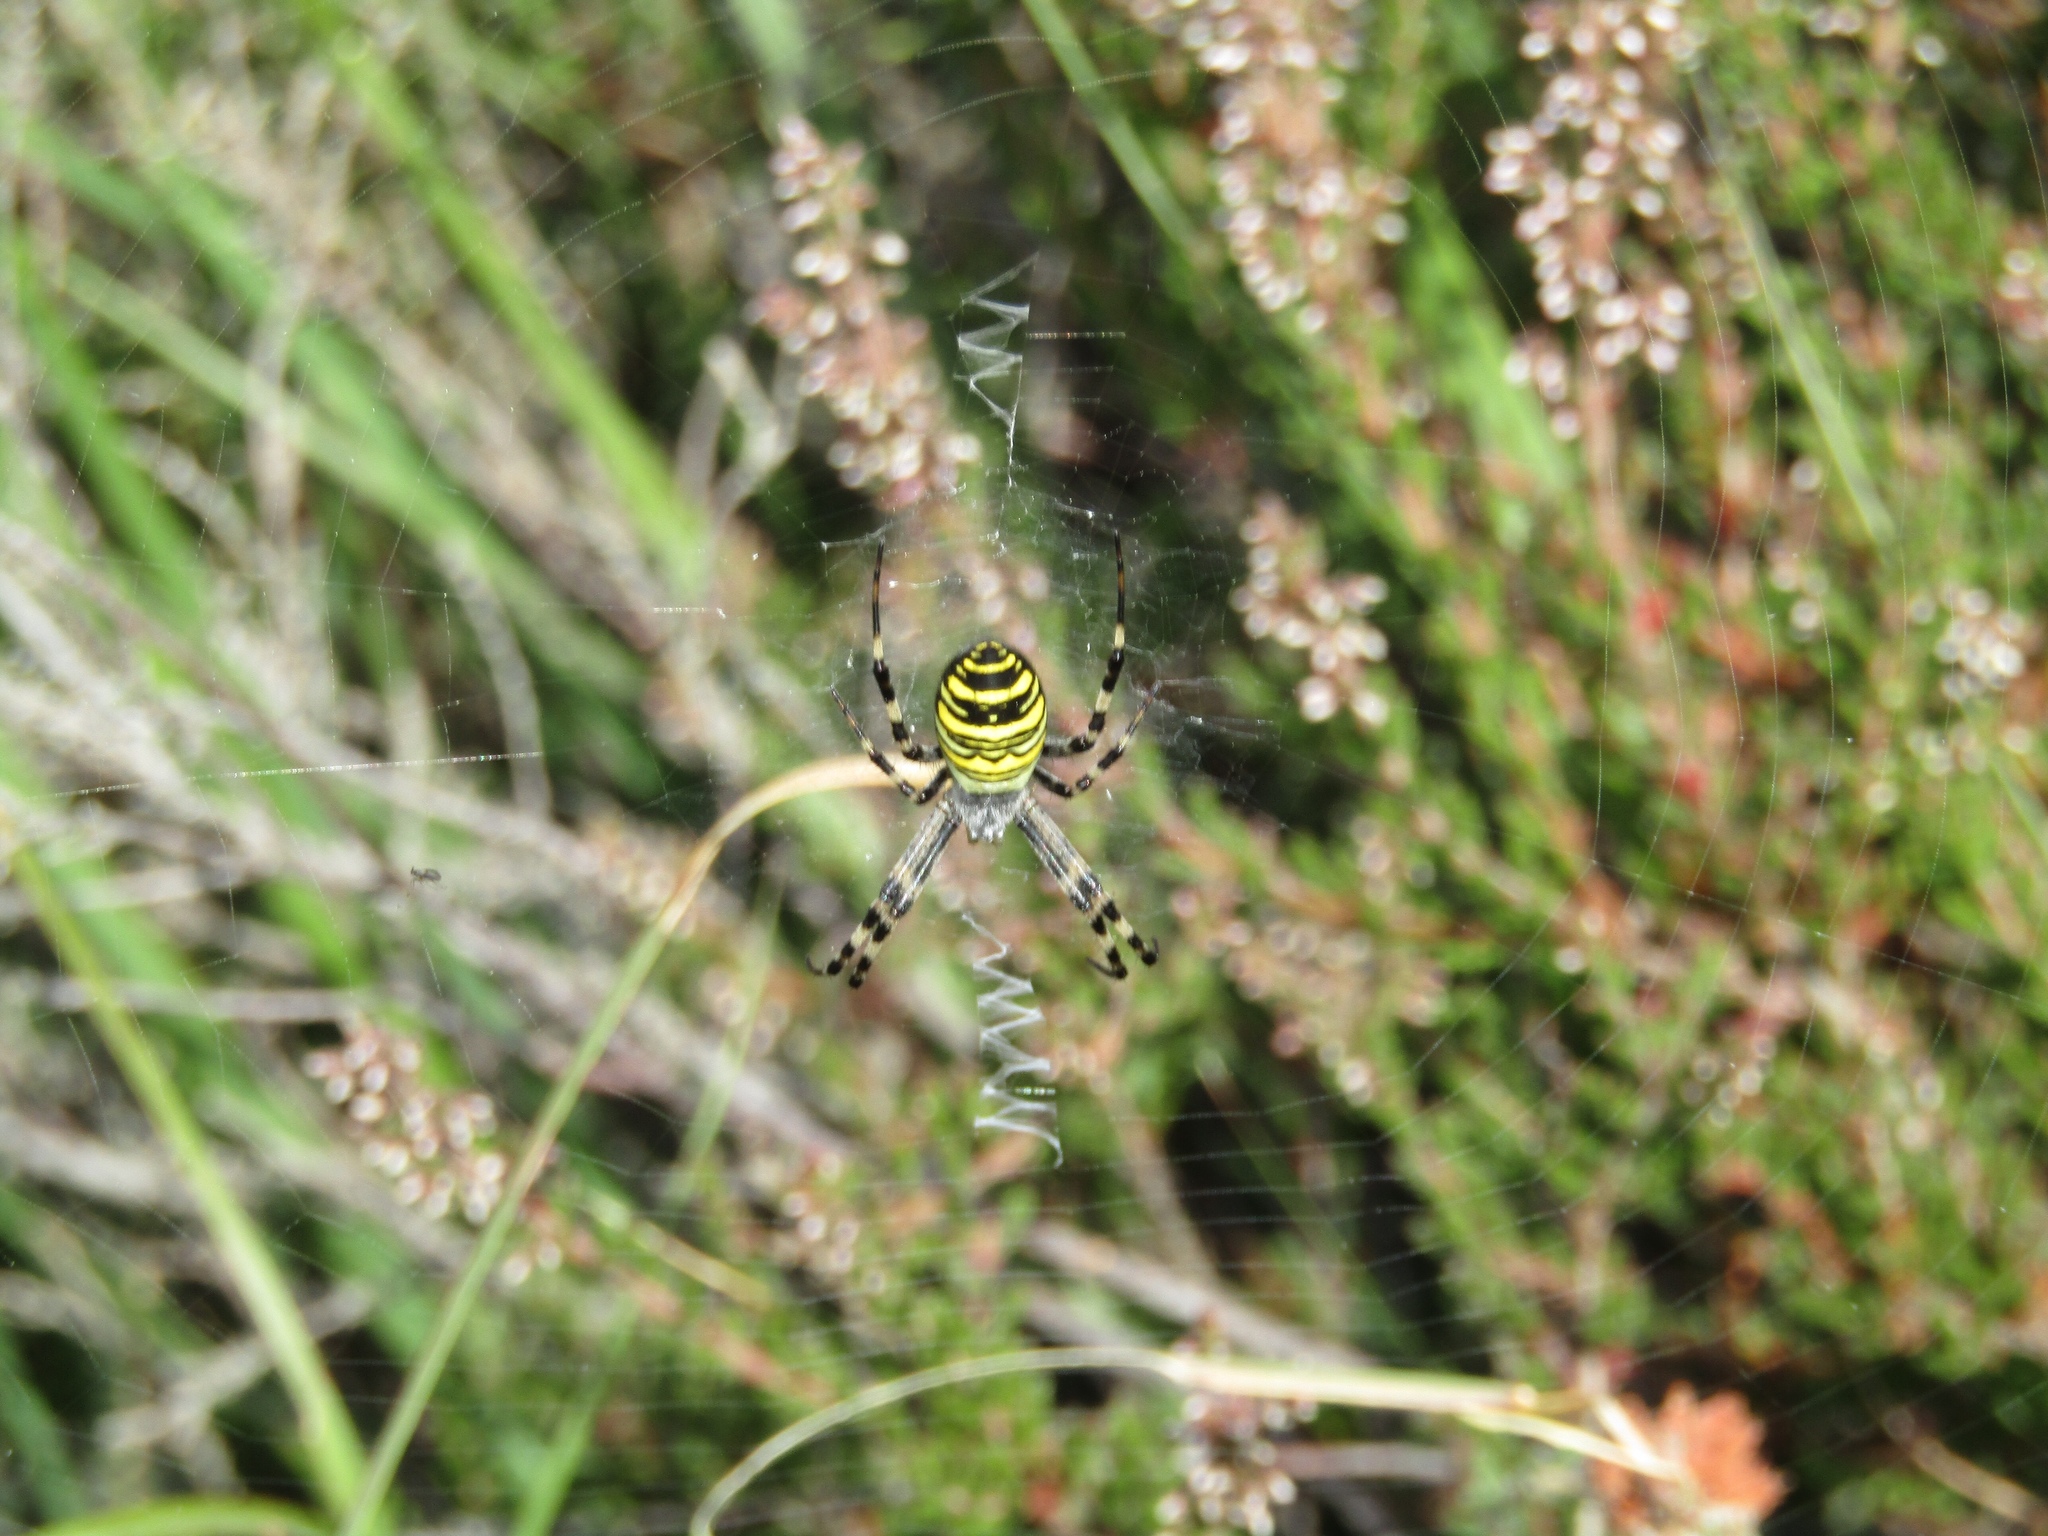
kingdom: Animalia
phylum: Arthropoda
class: Arachnida
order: Araneae
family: Araneidae
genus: Argiope
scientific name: Argiope bruennichi
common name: Wasp spider
